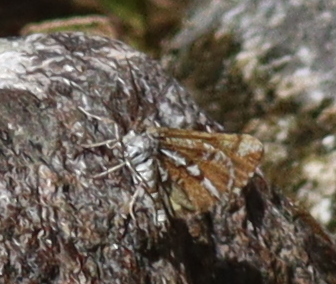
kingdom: Animalia
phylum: Arthropoda
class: Insecta
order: Lepidoptera
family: Geometridae
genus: Bupalus
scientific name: Bupalus piniaria
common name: Bordered white
